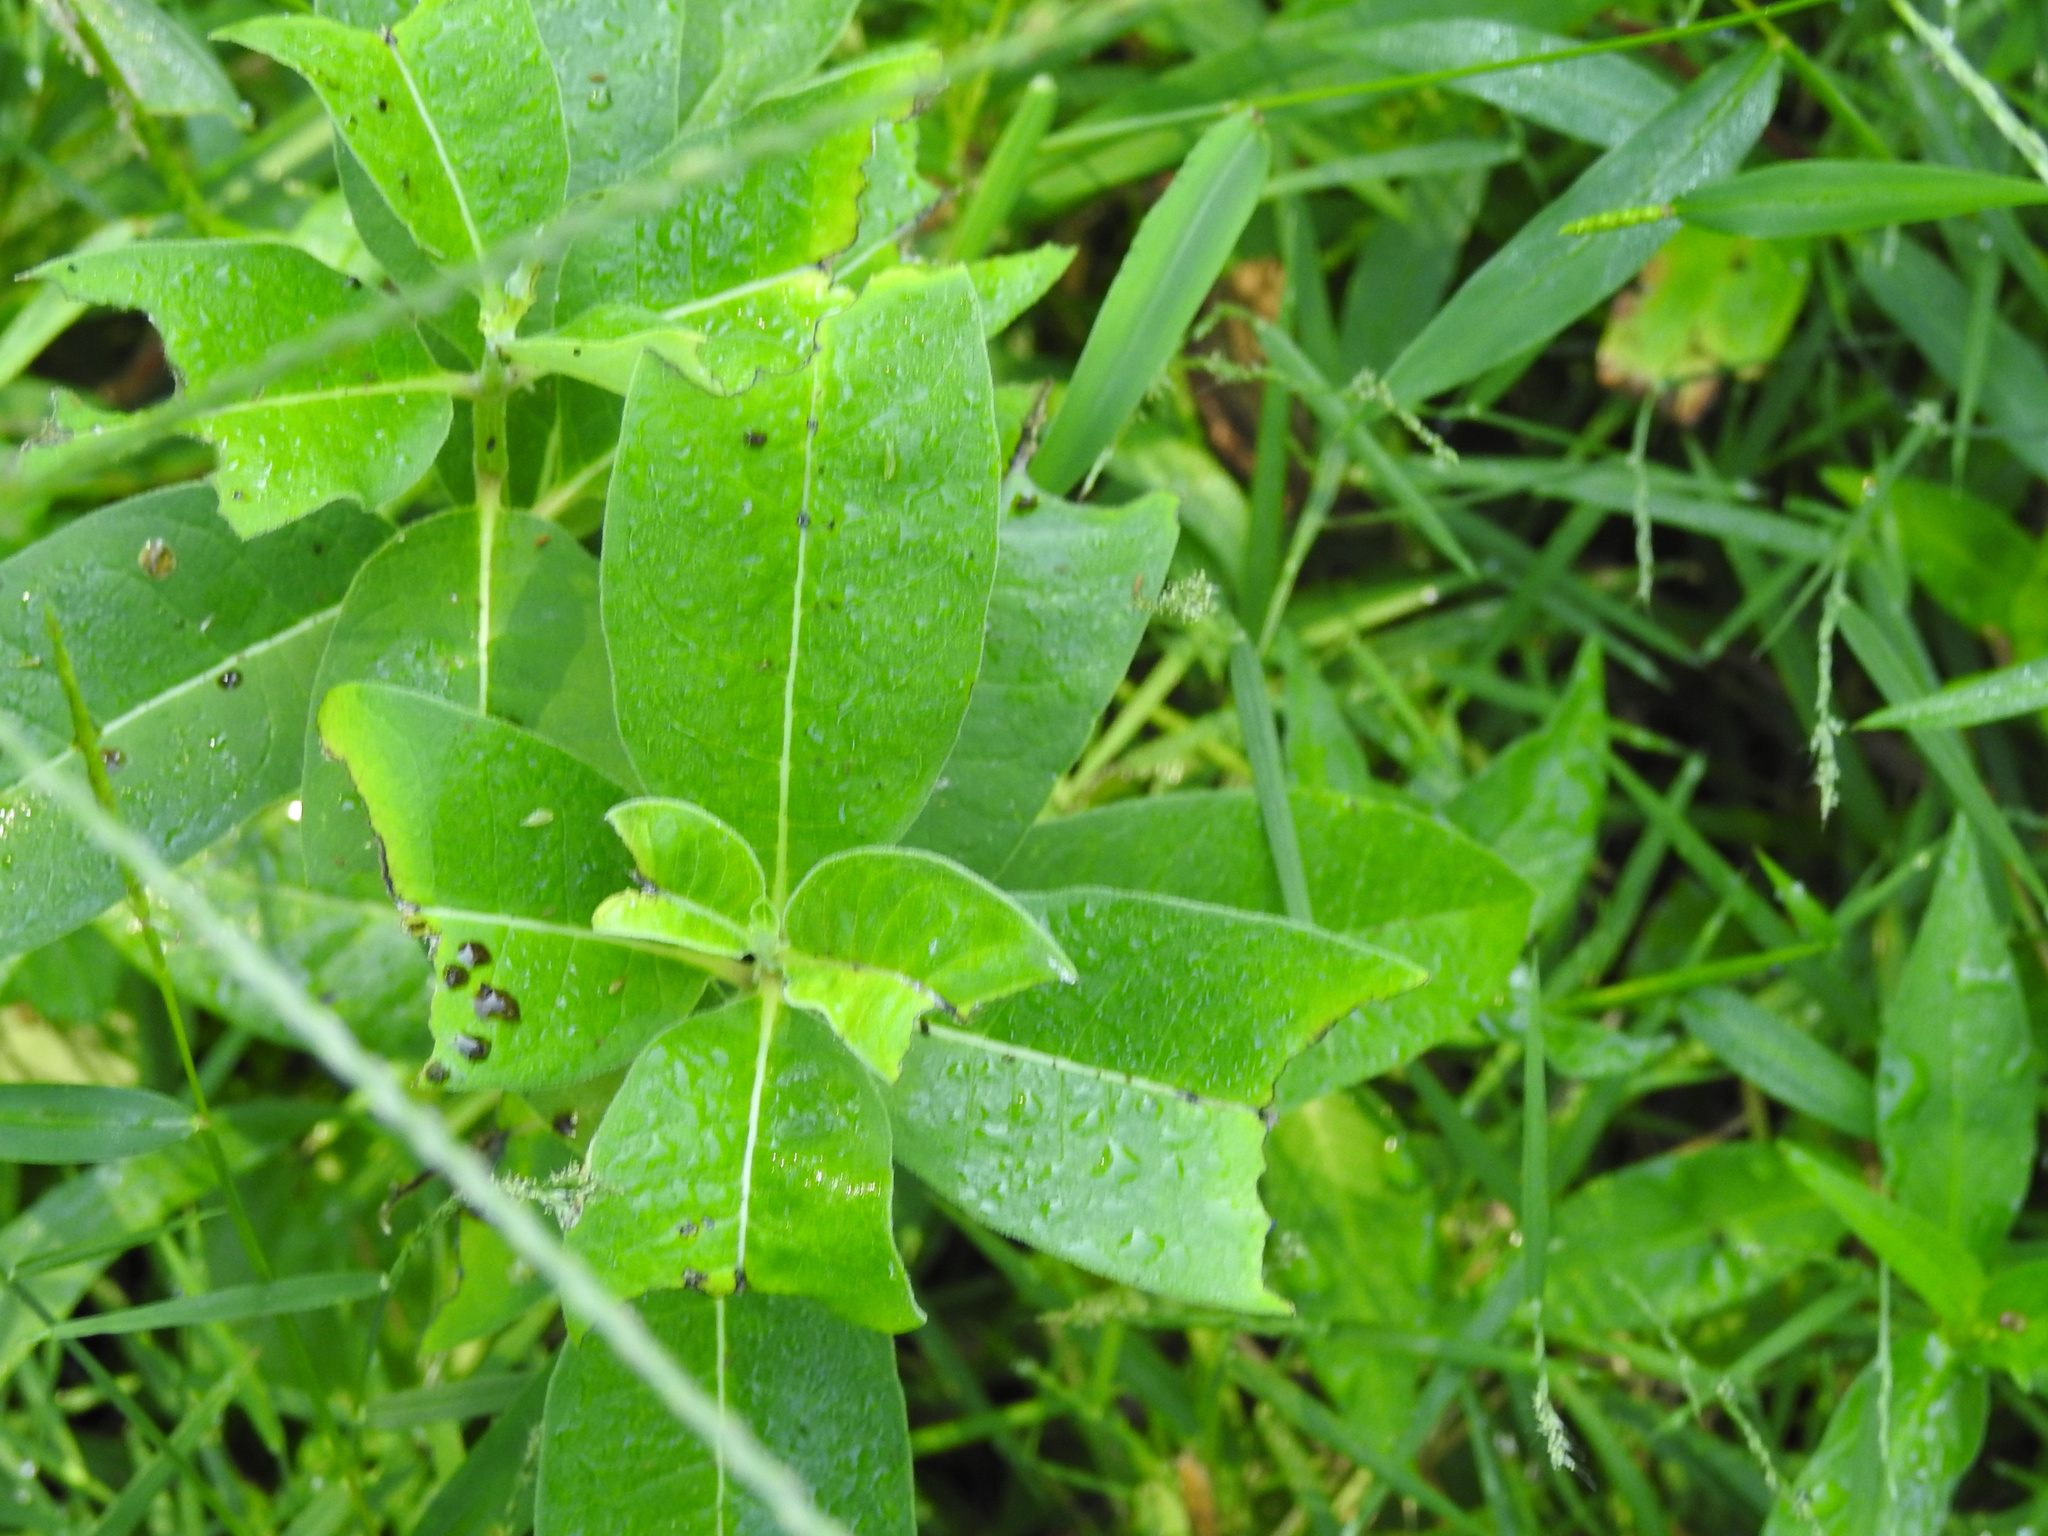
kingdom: Plantae
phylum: Tracheophyta
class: Magnoliopsida
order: Gentianales
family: Apocynaceae
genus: Asclepias
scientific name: Asclepias syriaca
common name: Common milkweed
